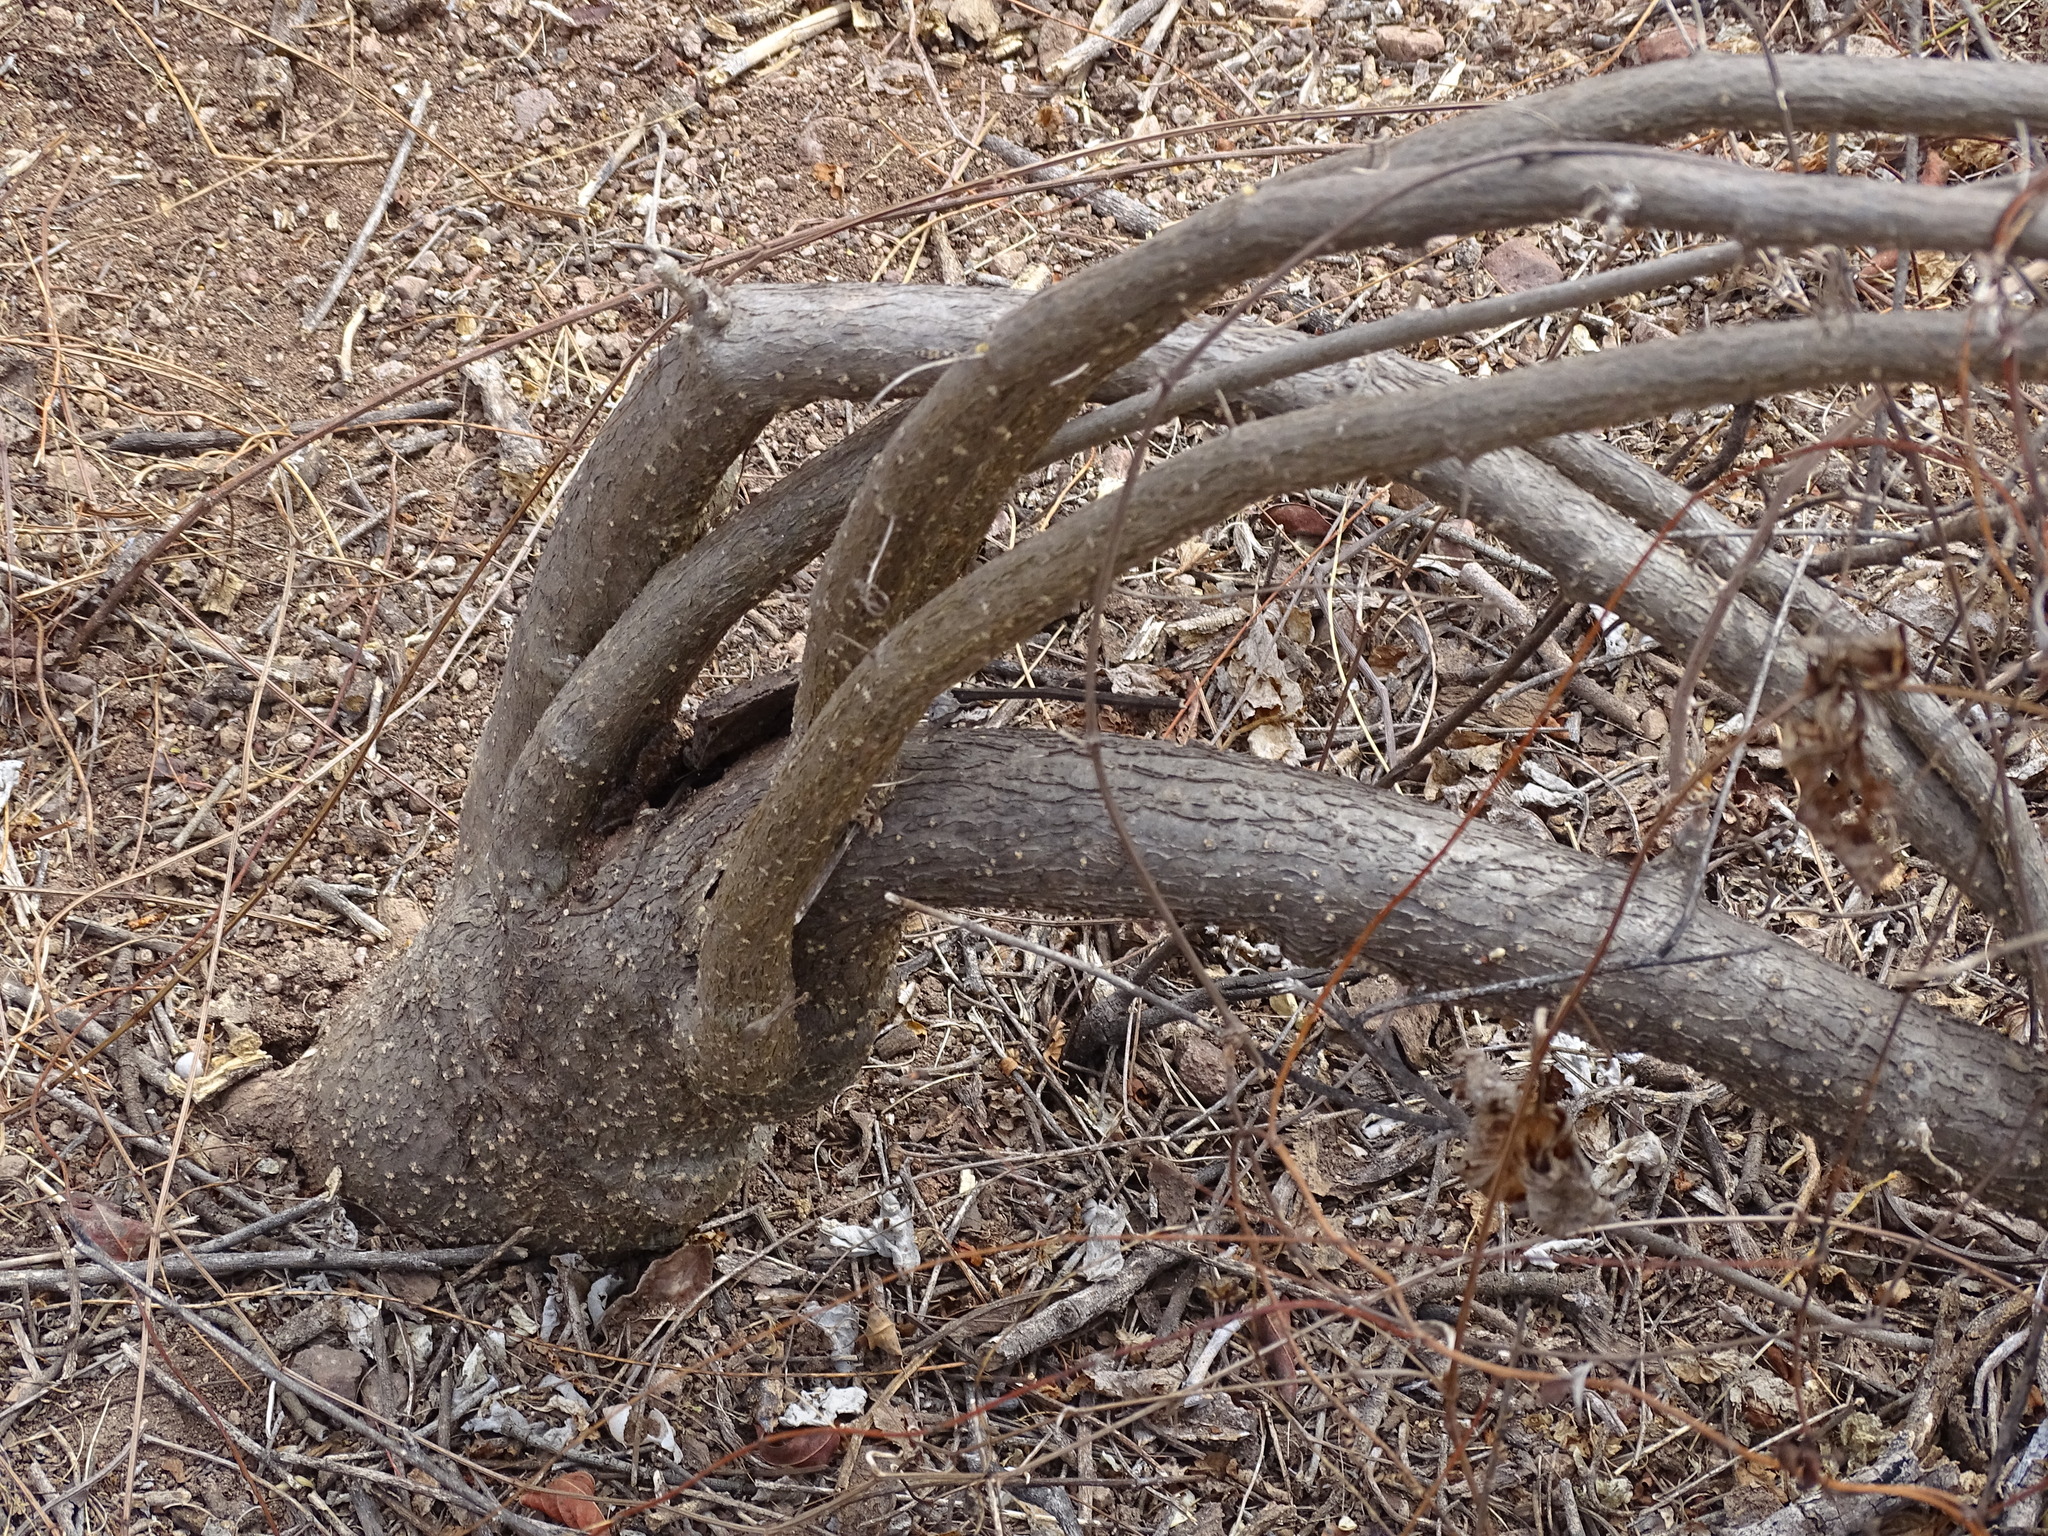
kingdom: Plantae
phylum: Tracheophyta
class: Magnoliopsida
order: Cucurbitales
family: Cucurbitaceae
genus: Doyerea
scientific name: Doyerea emetocathartica
